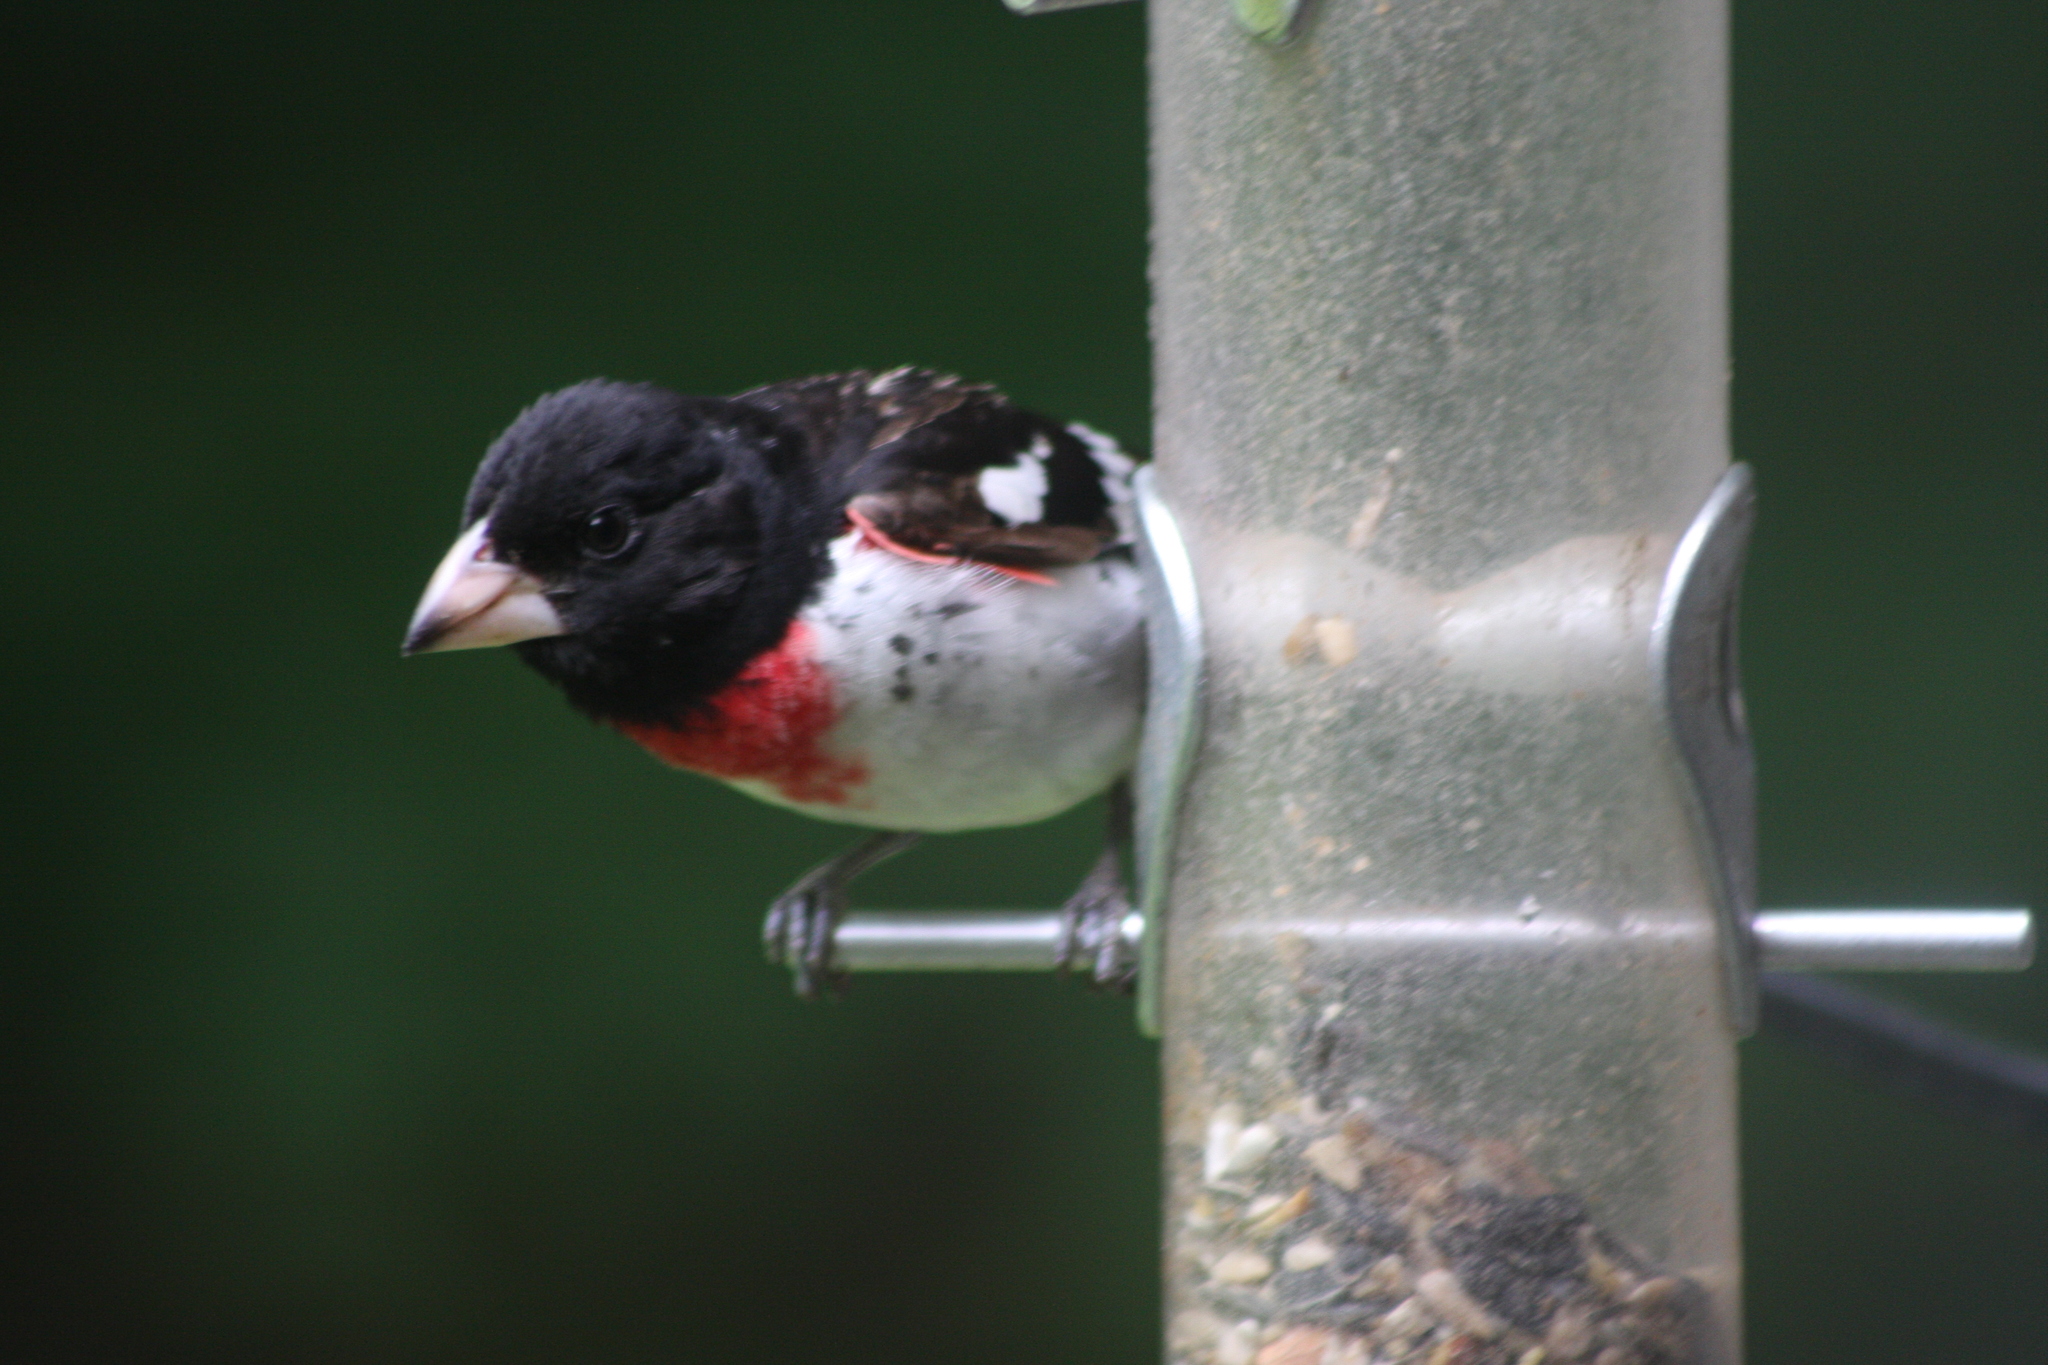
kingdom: Animalia
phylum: Chordata
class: Aves
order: Passeriformes
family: Cardinalidae
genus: Pheucticus
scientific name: Pheucticus ludovicianus
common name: Rose-breasted grosbeak
